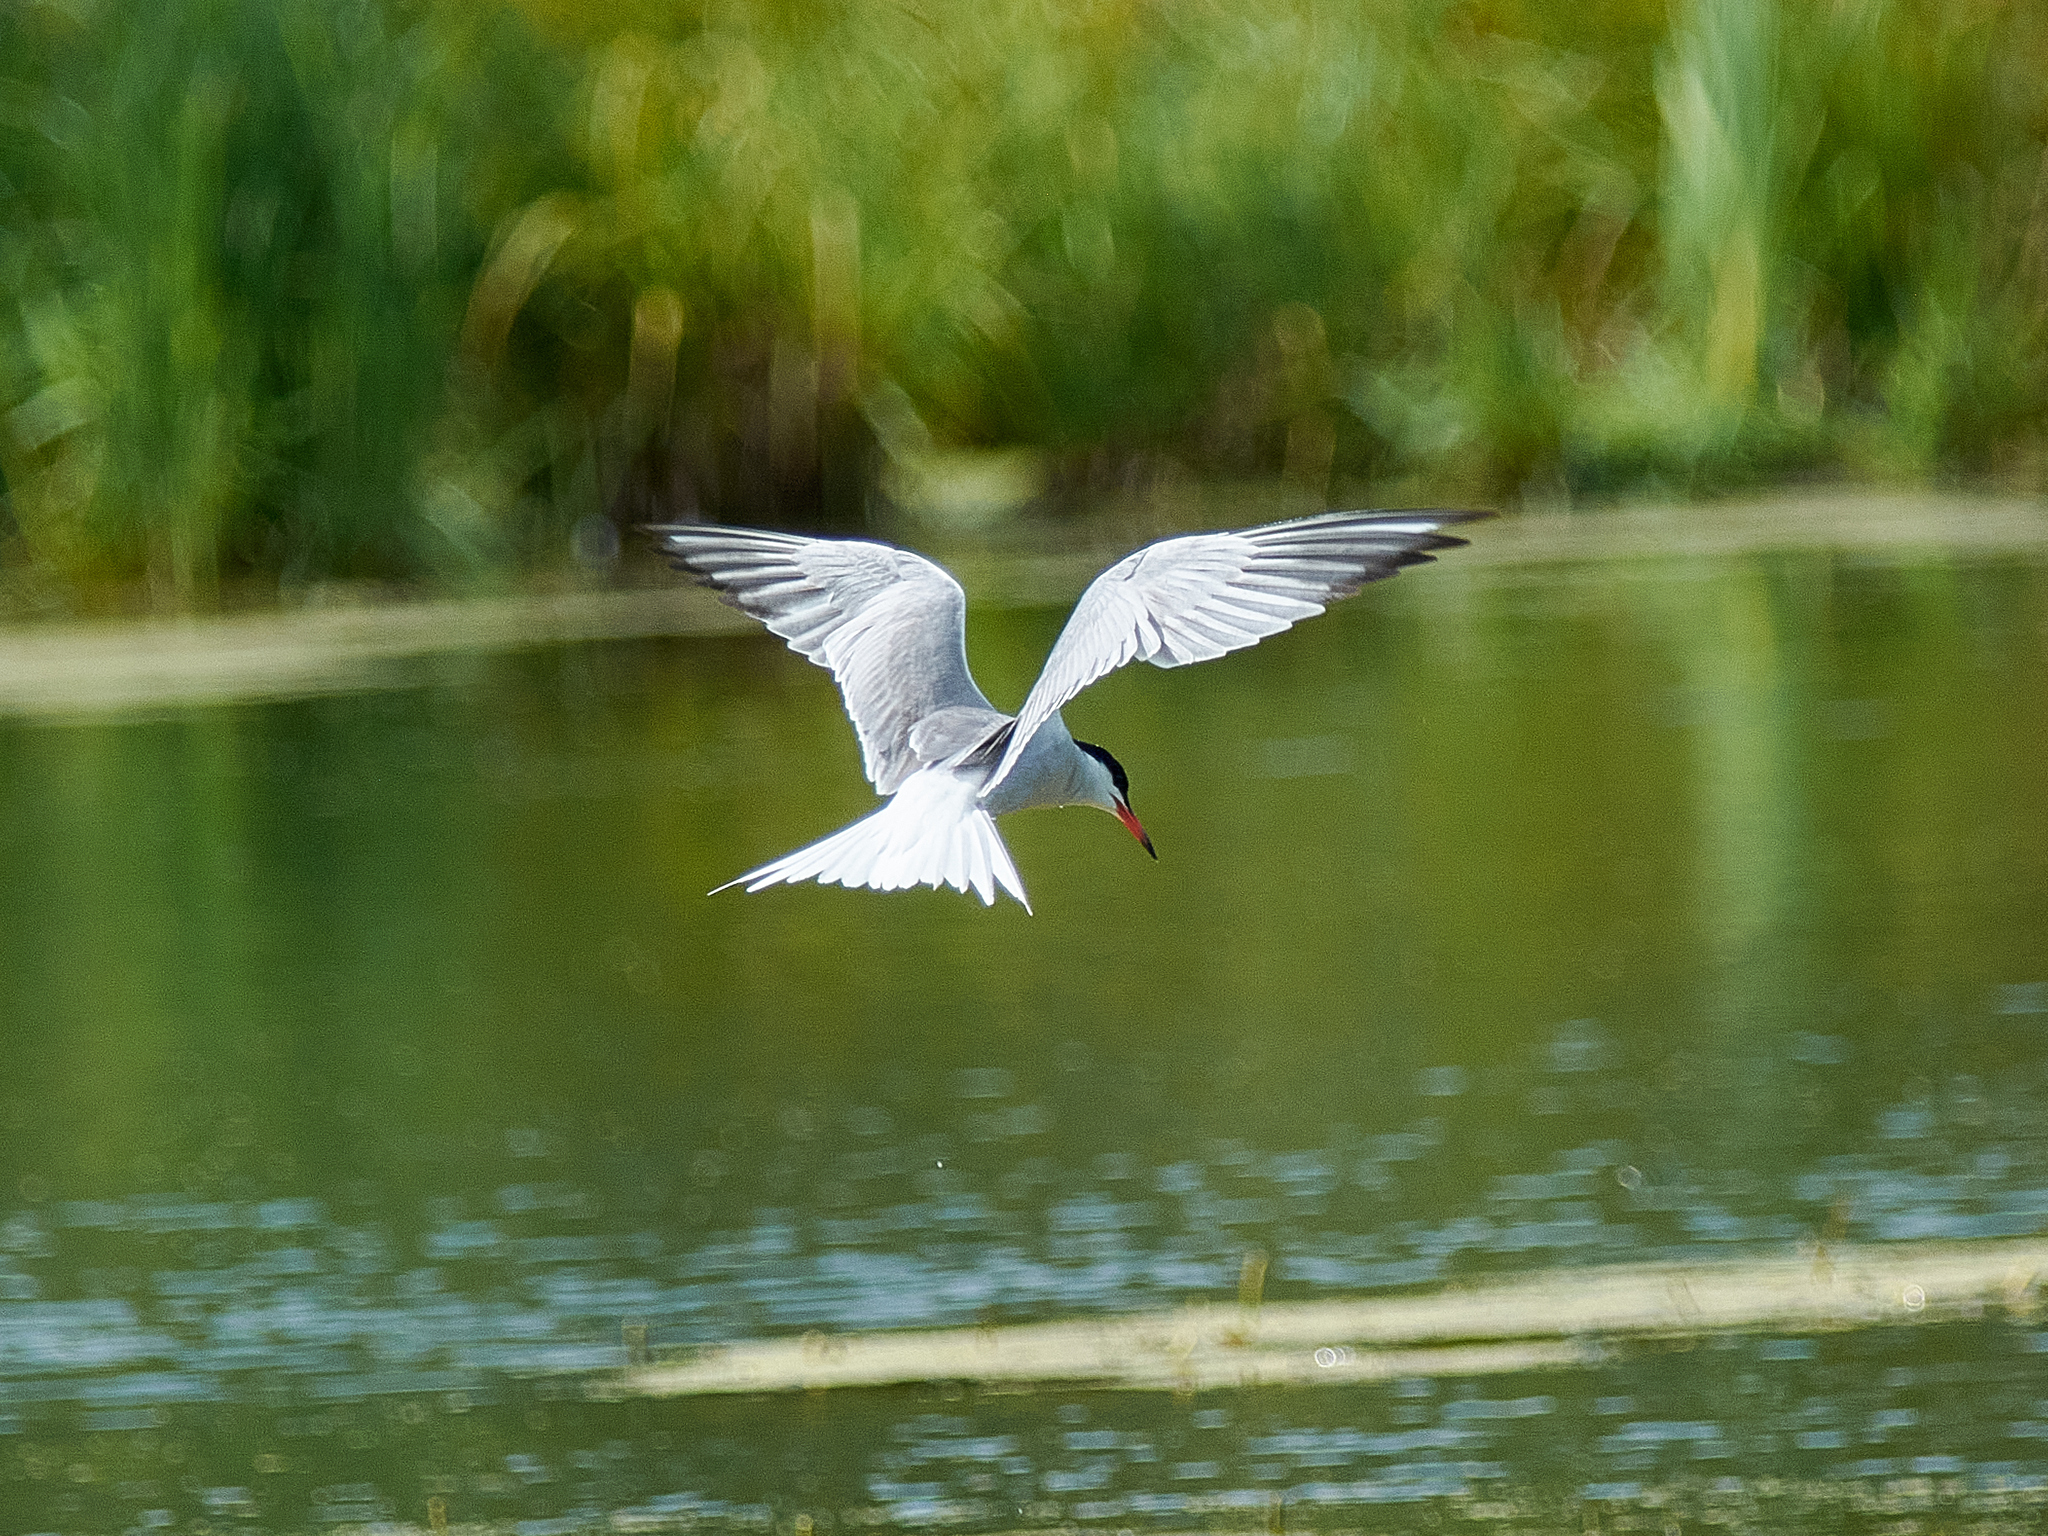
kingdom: Animalia
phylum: Chordata
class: Aves
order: Charadriiformes
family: Laridae
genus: Sterna
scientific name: Sterna hirundo
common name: Common tern
